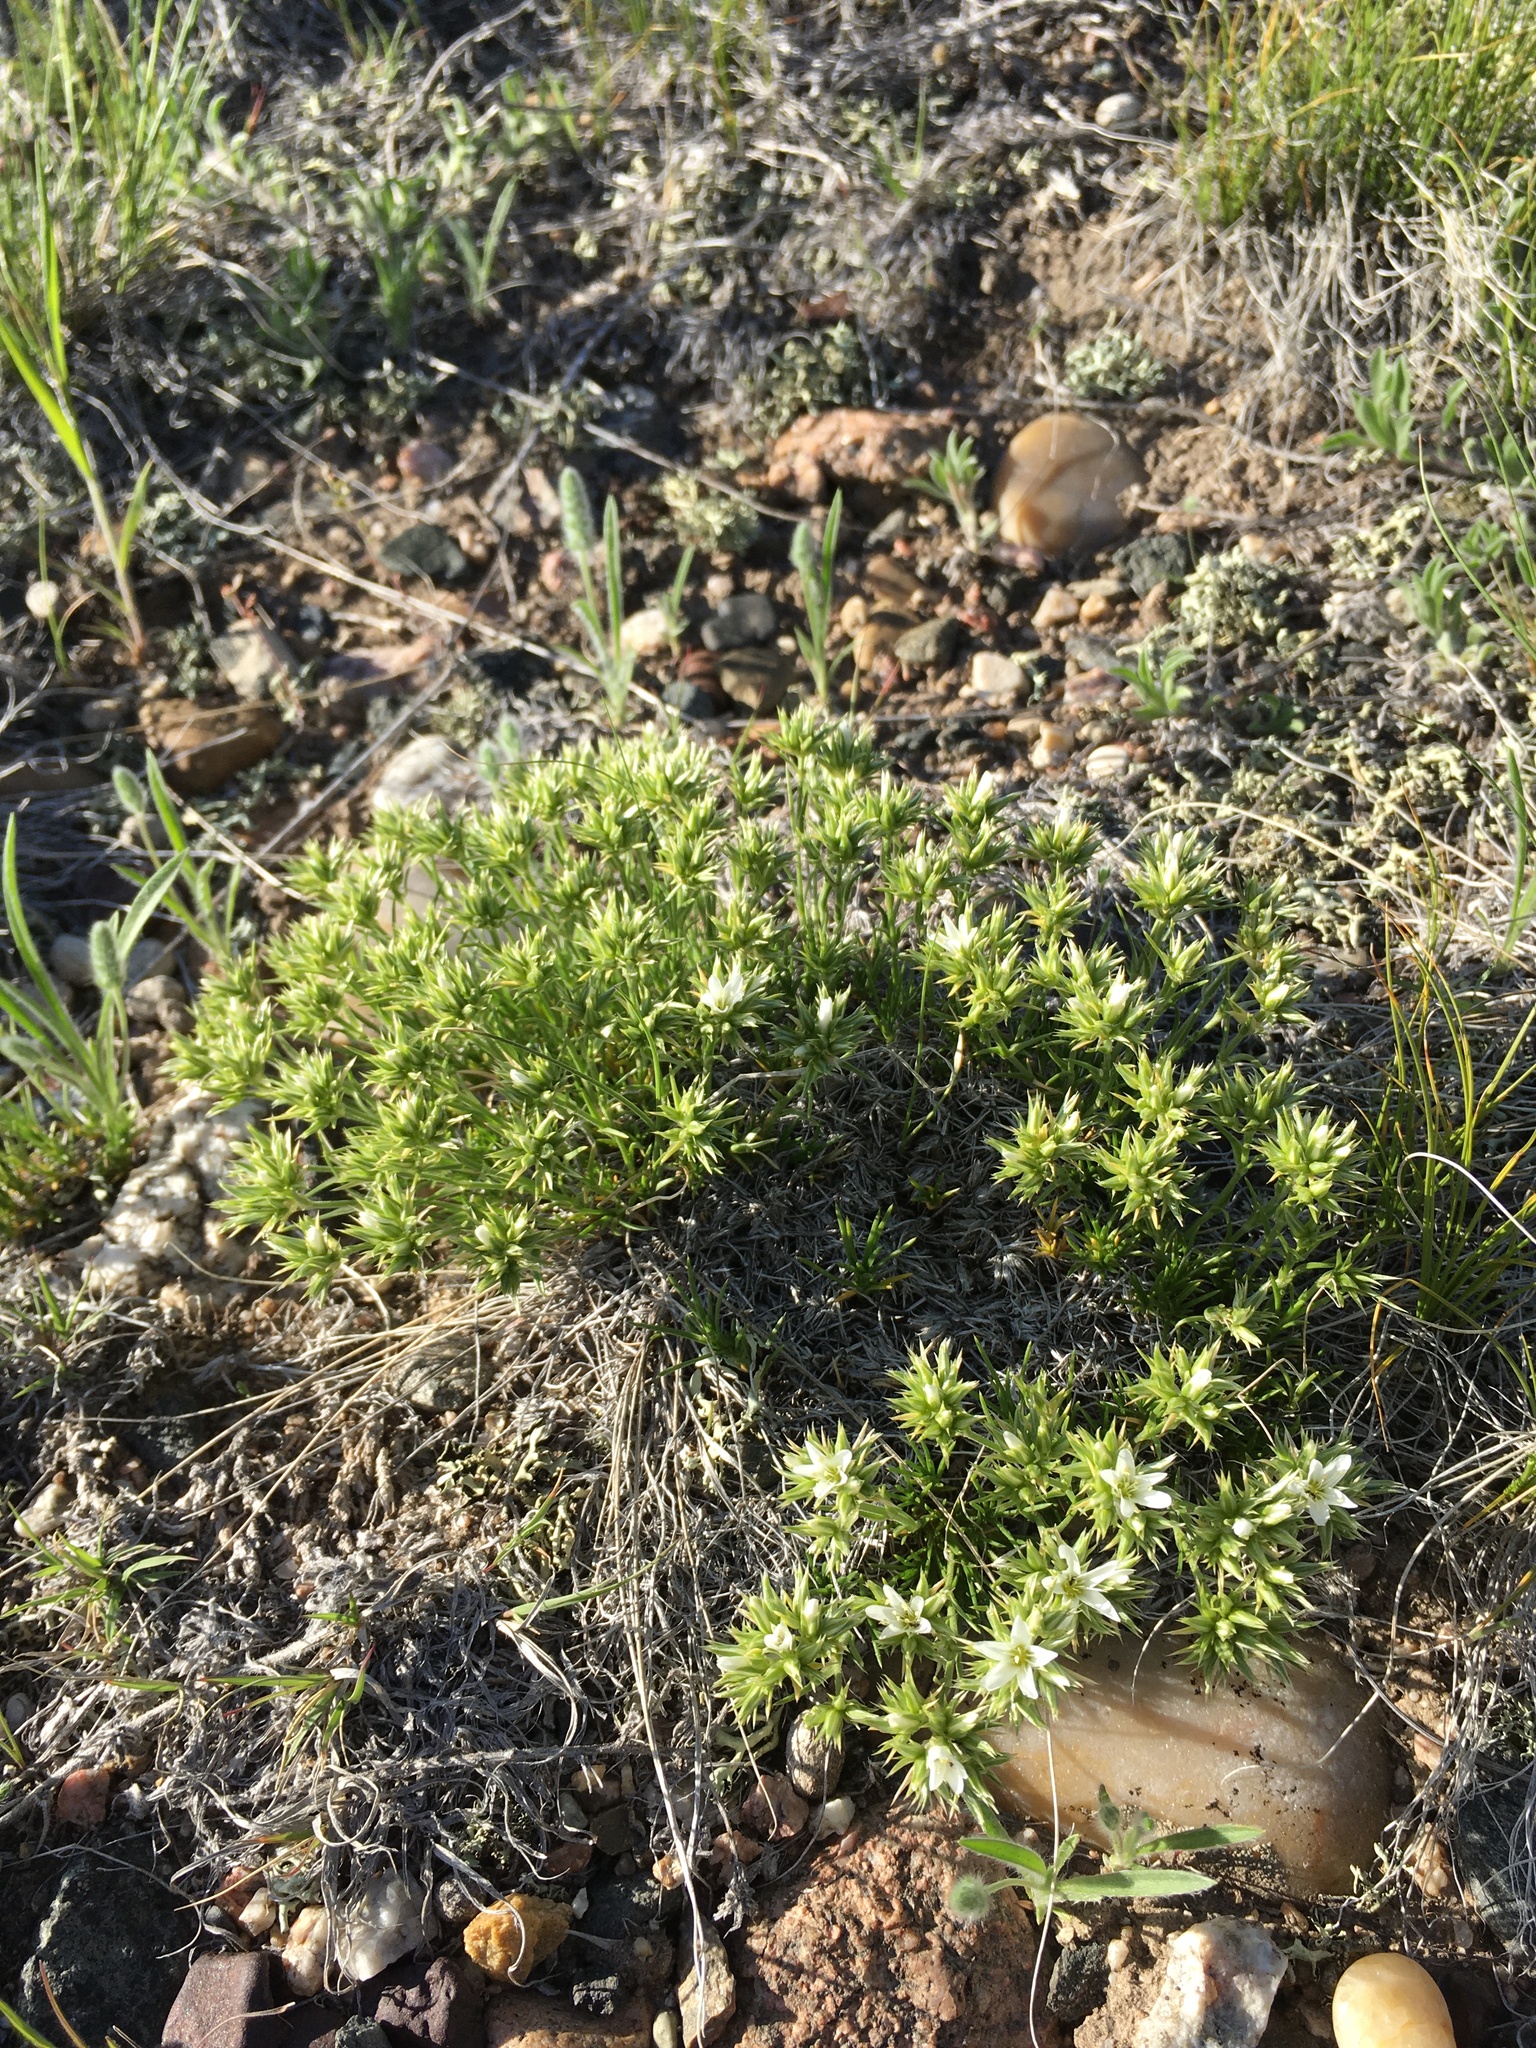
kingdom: Plantae
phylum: Tracheophyta
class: Magnoliopsida
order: Caryophyllales
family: Caryophyllaceae
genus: Eremogone
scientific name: Eremogone hookeri
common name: Hooker's sandwort
